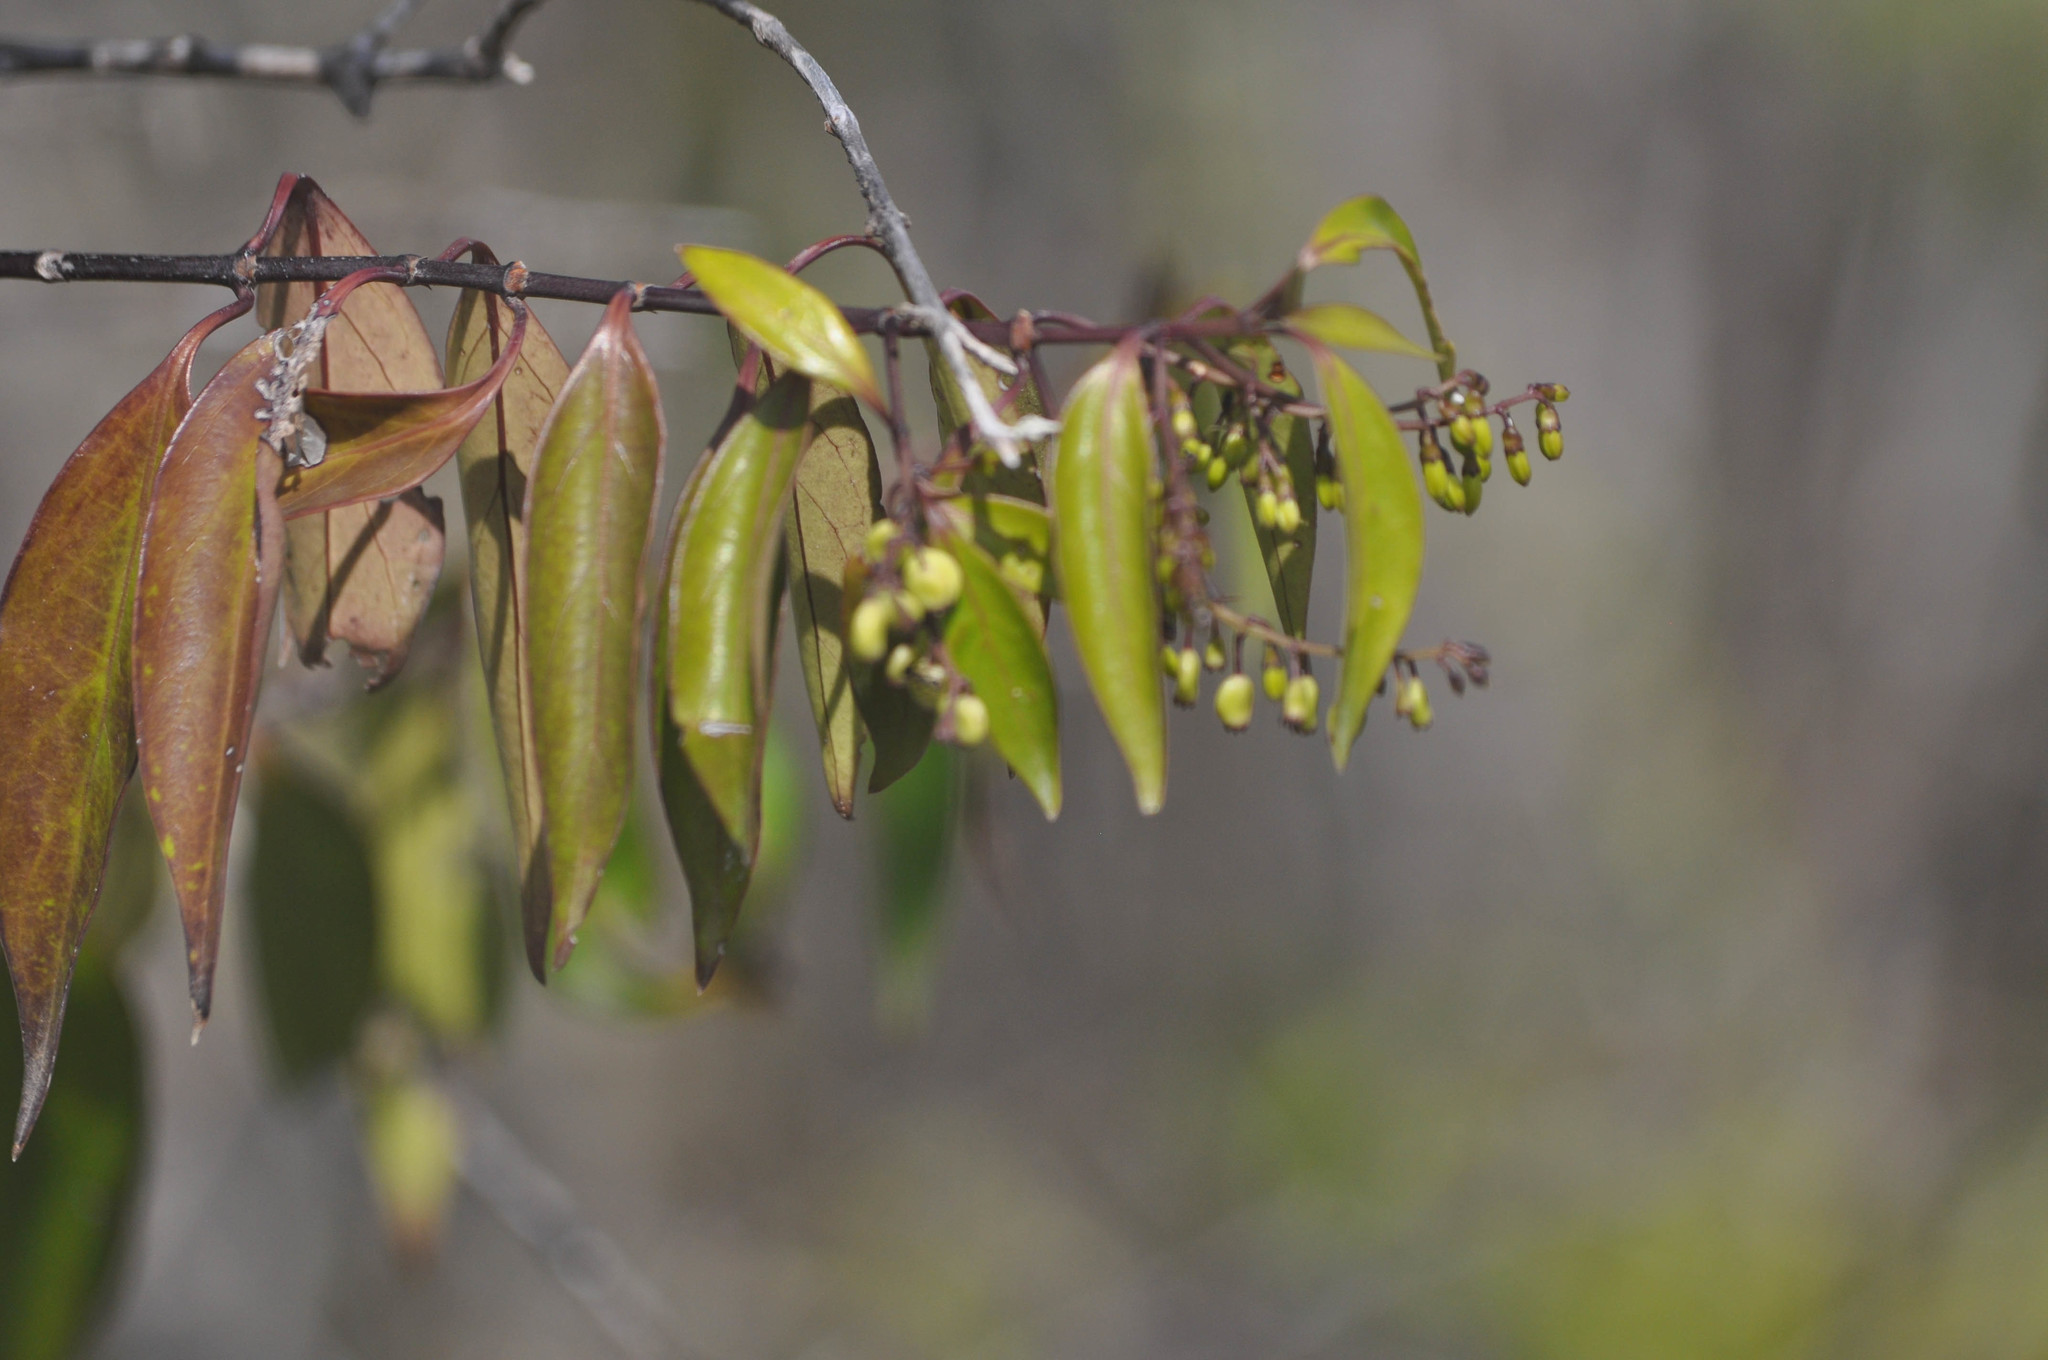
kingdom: Plantae
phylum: Tracheophyta
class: Magnoliopsida
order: Gentianales
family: Rubiaceae
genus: Chiococca
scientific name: Chiococca alba
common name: Snowberry
